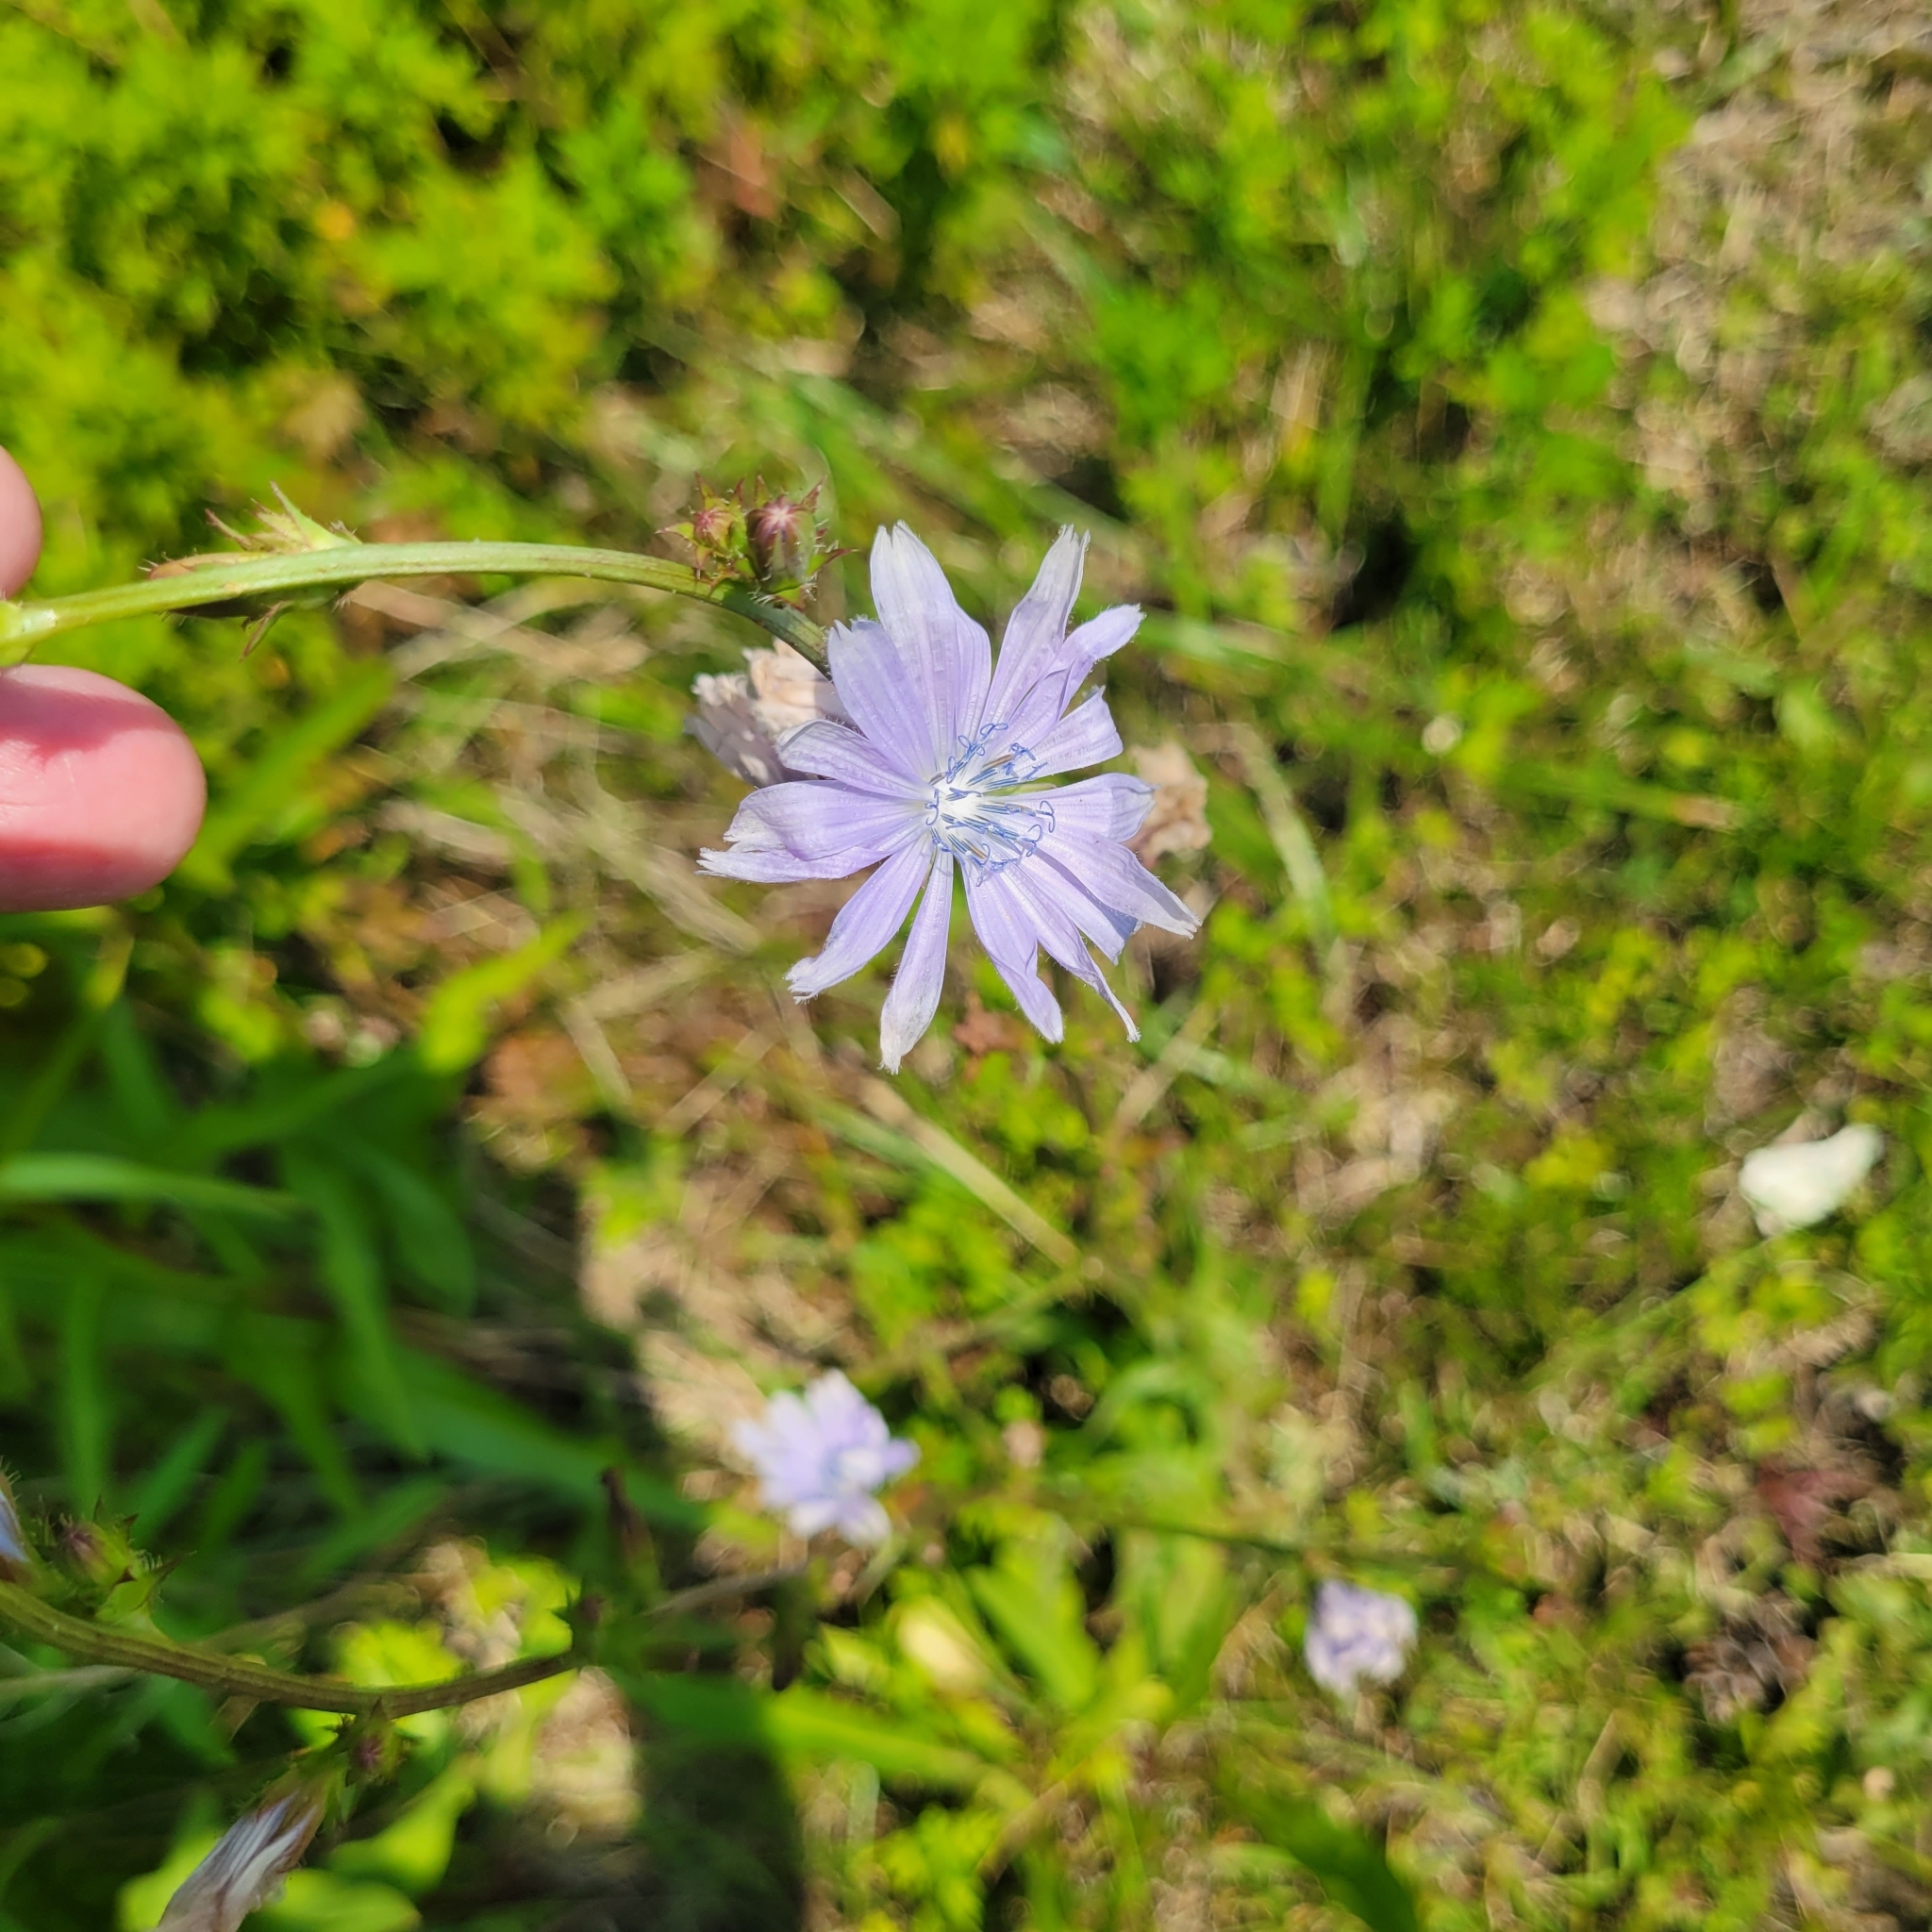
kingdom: Plantae
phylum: Tracheophyta
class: Magnoliopsida
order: Asterales
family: Asteraceae
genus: Cichorium
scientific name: Cichorium intybus
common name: Chicory
